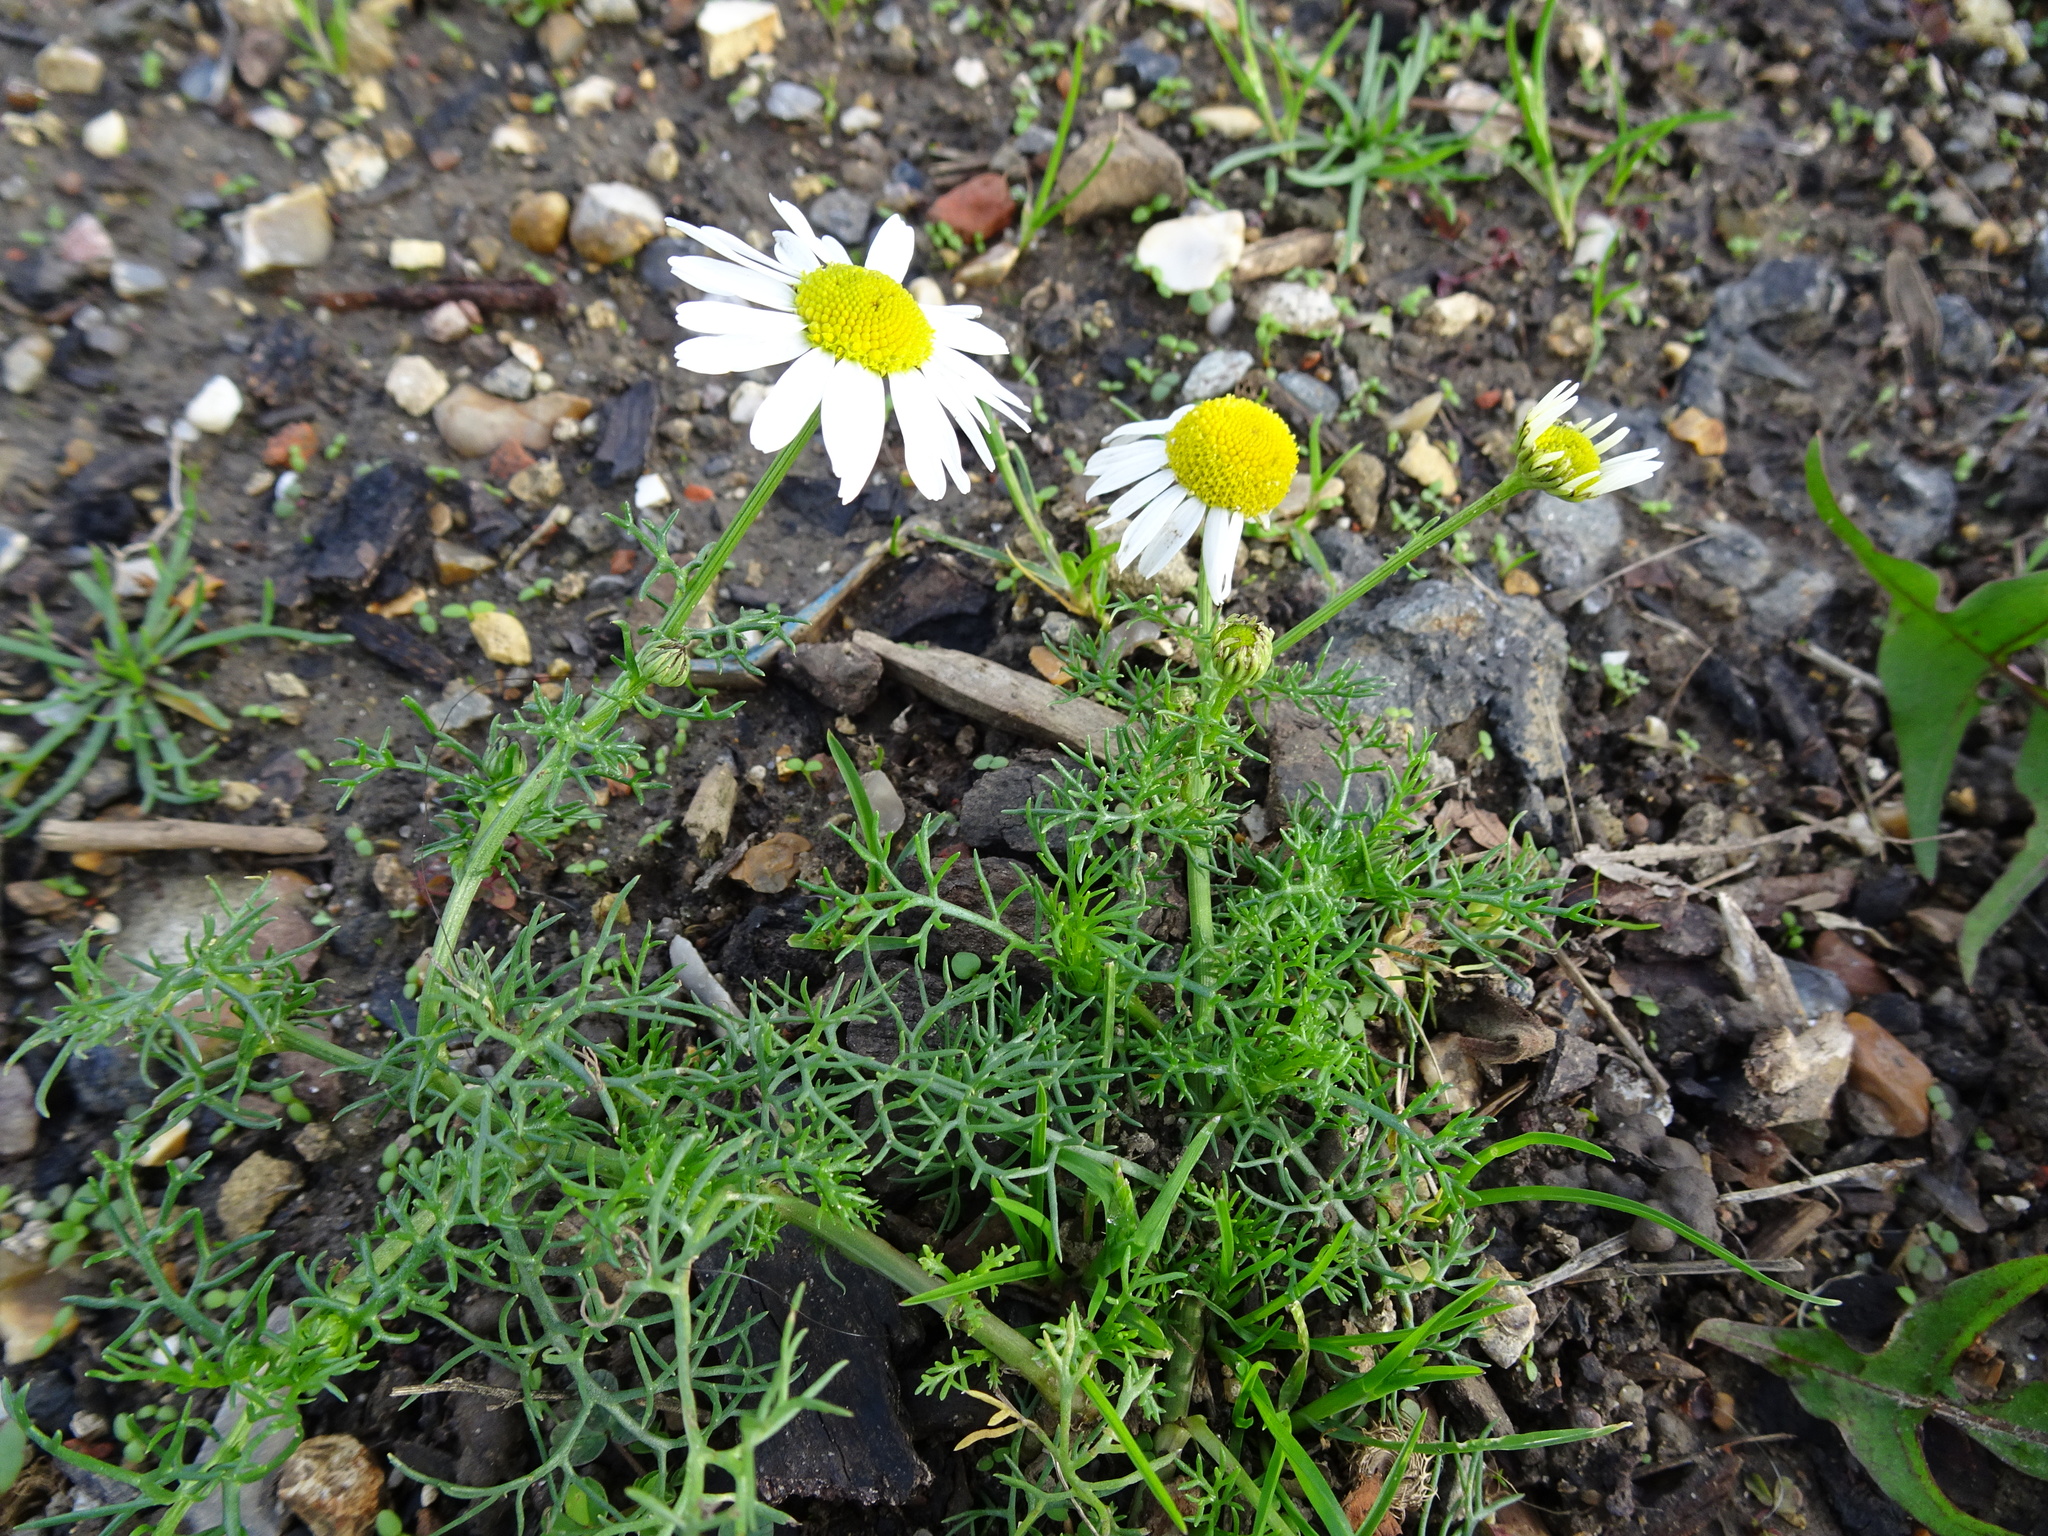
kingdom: Plantae
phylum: Tracheophyta
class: Magnoliopsida
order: Asterales
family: Asteraceae
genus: Tripleurospermum
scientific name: Tripleurospermum inodorum
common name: Scentless mayweed
